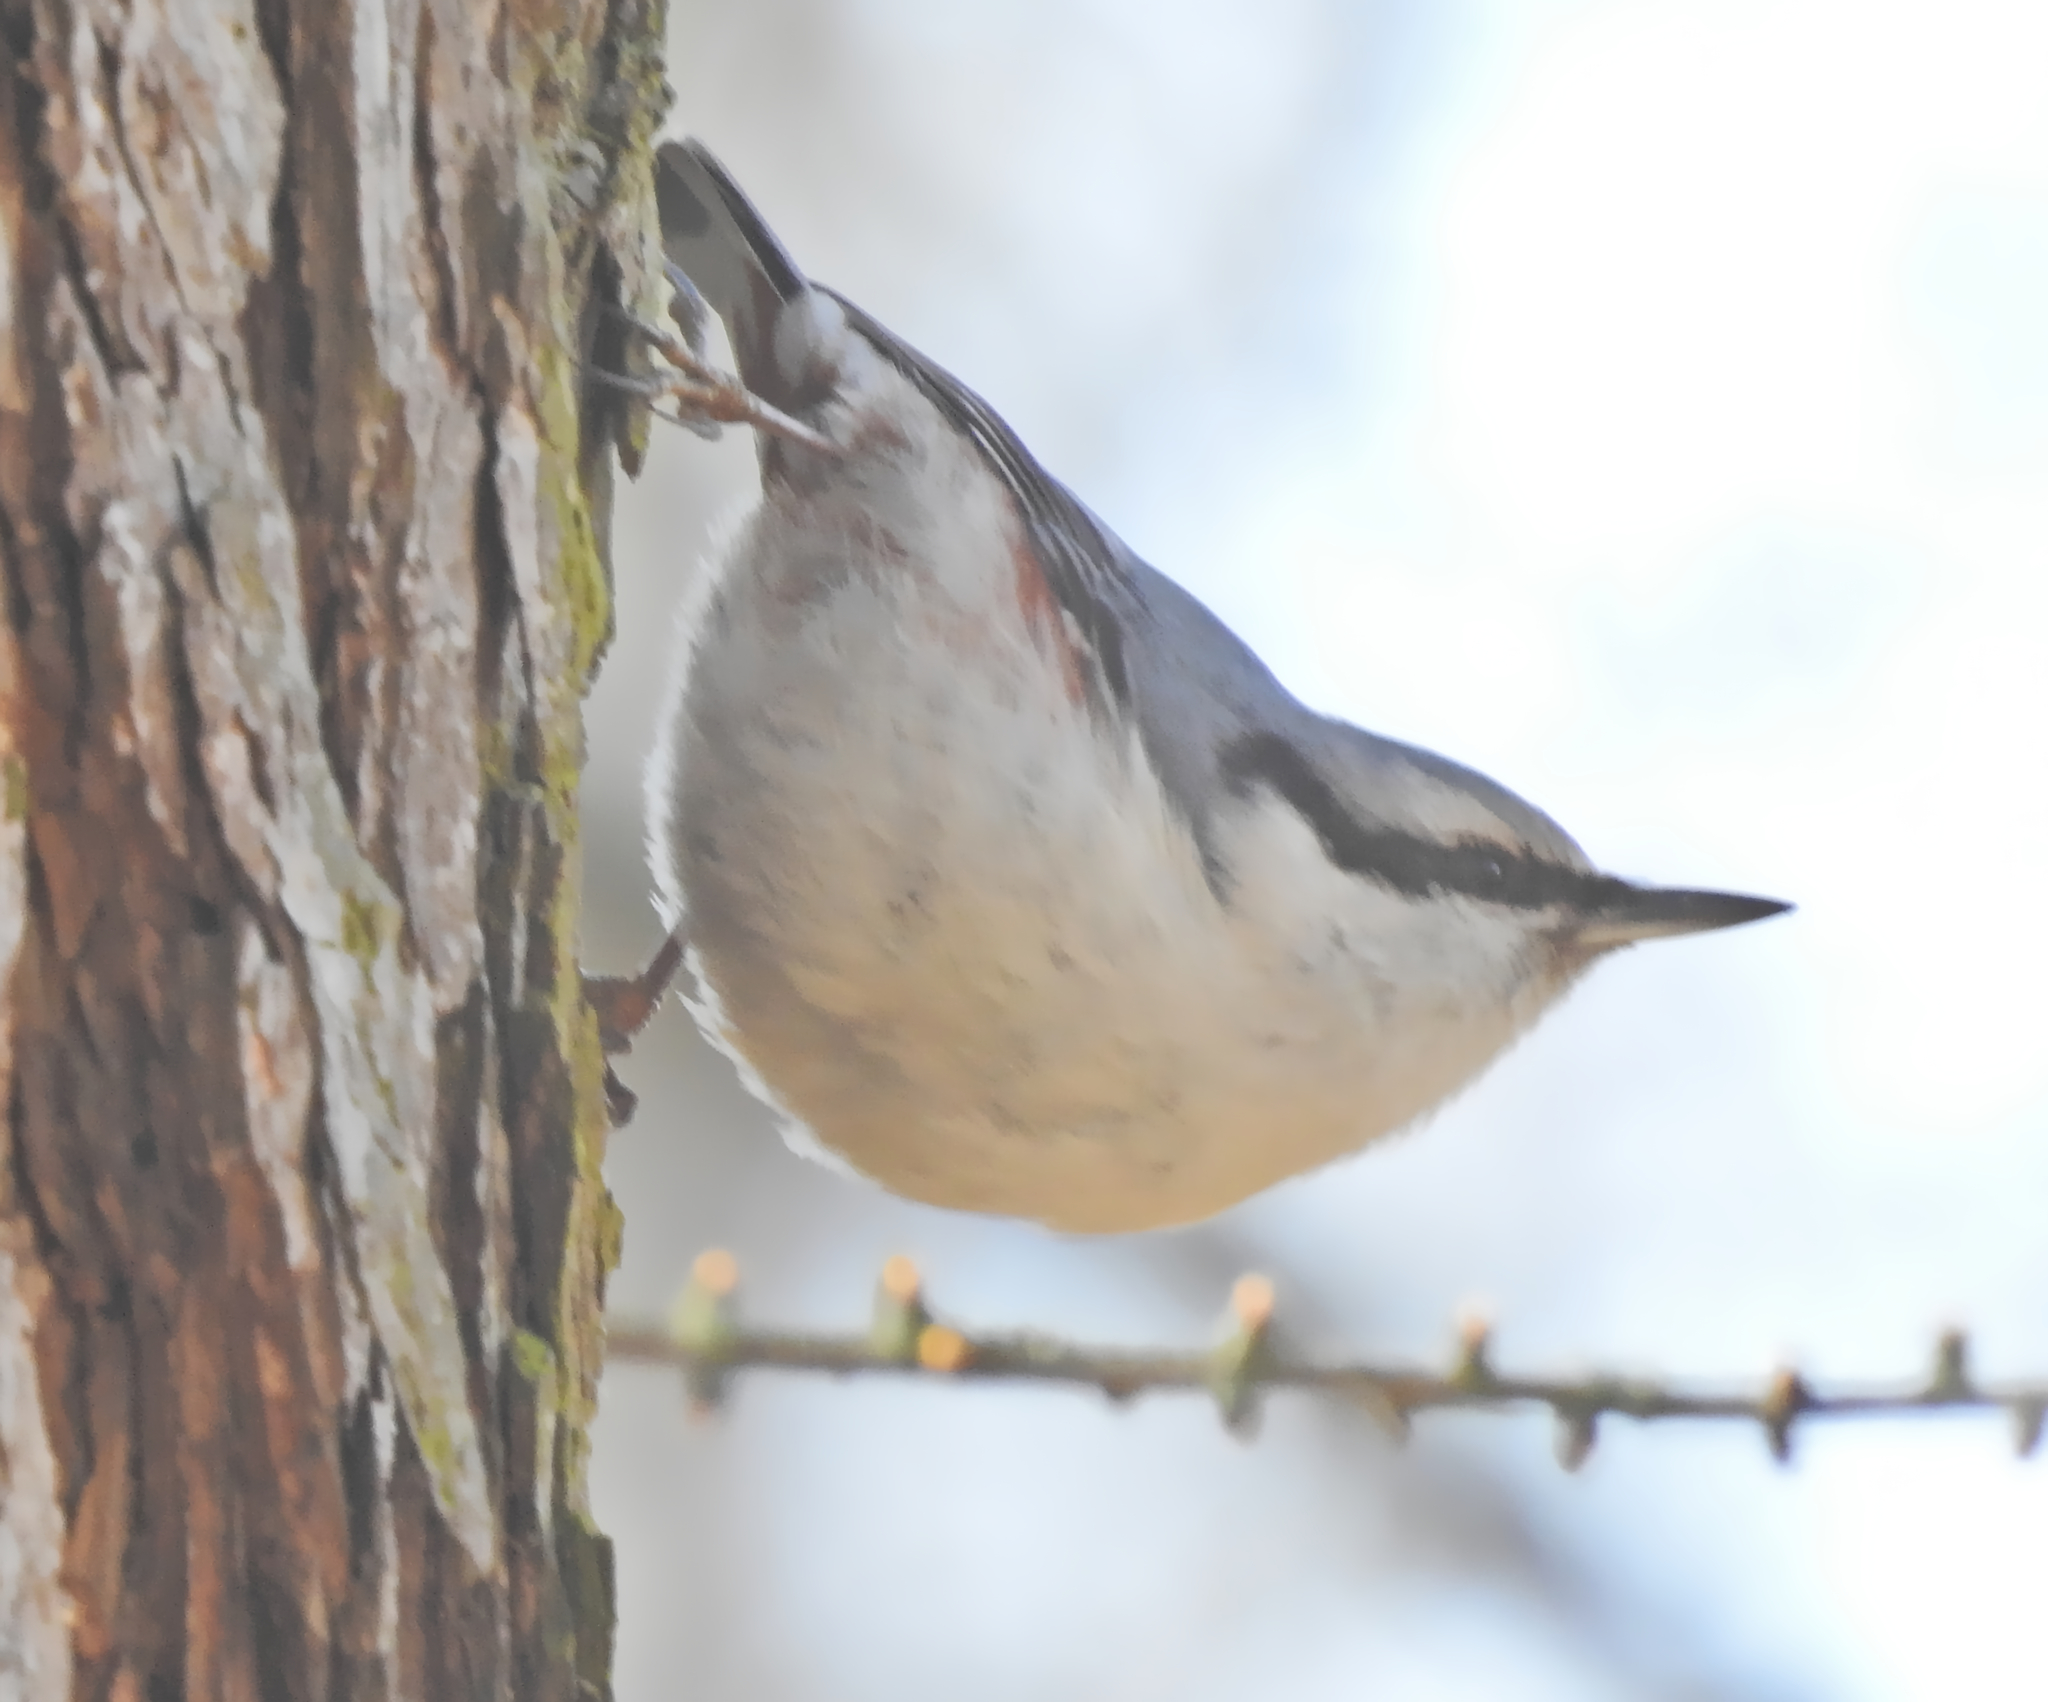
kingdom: Animalia
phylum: Chordata
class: Aves
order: Passeriformes
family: Sittidae
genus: Sitta
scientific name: Sitta europaea
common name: Eurasian nuthatch
